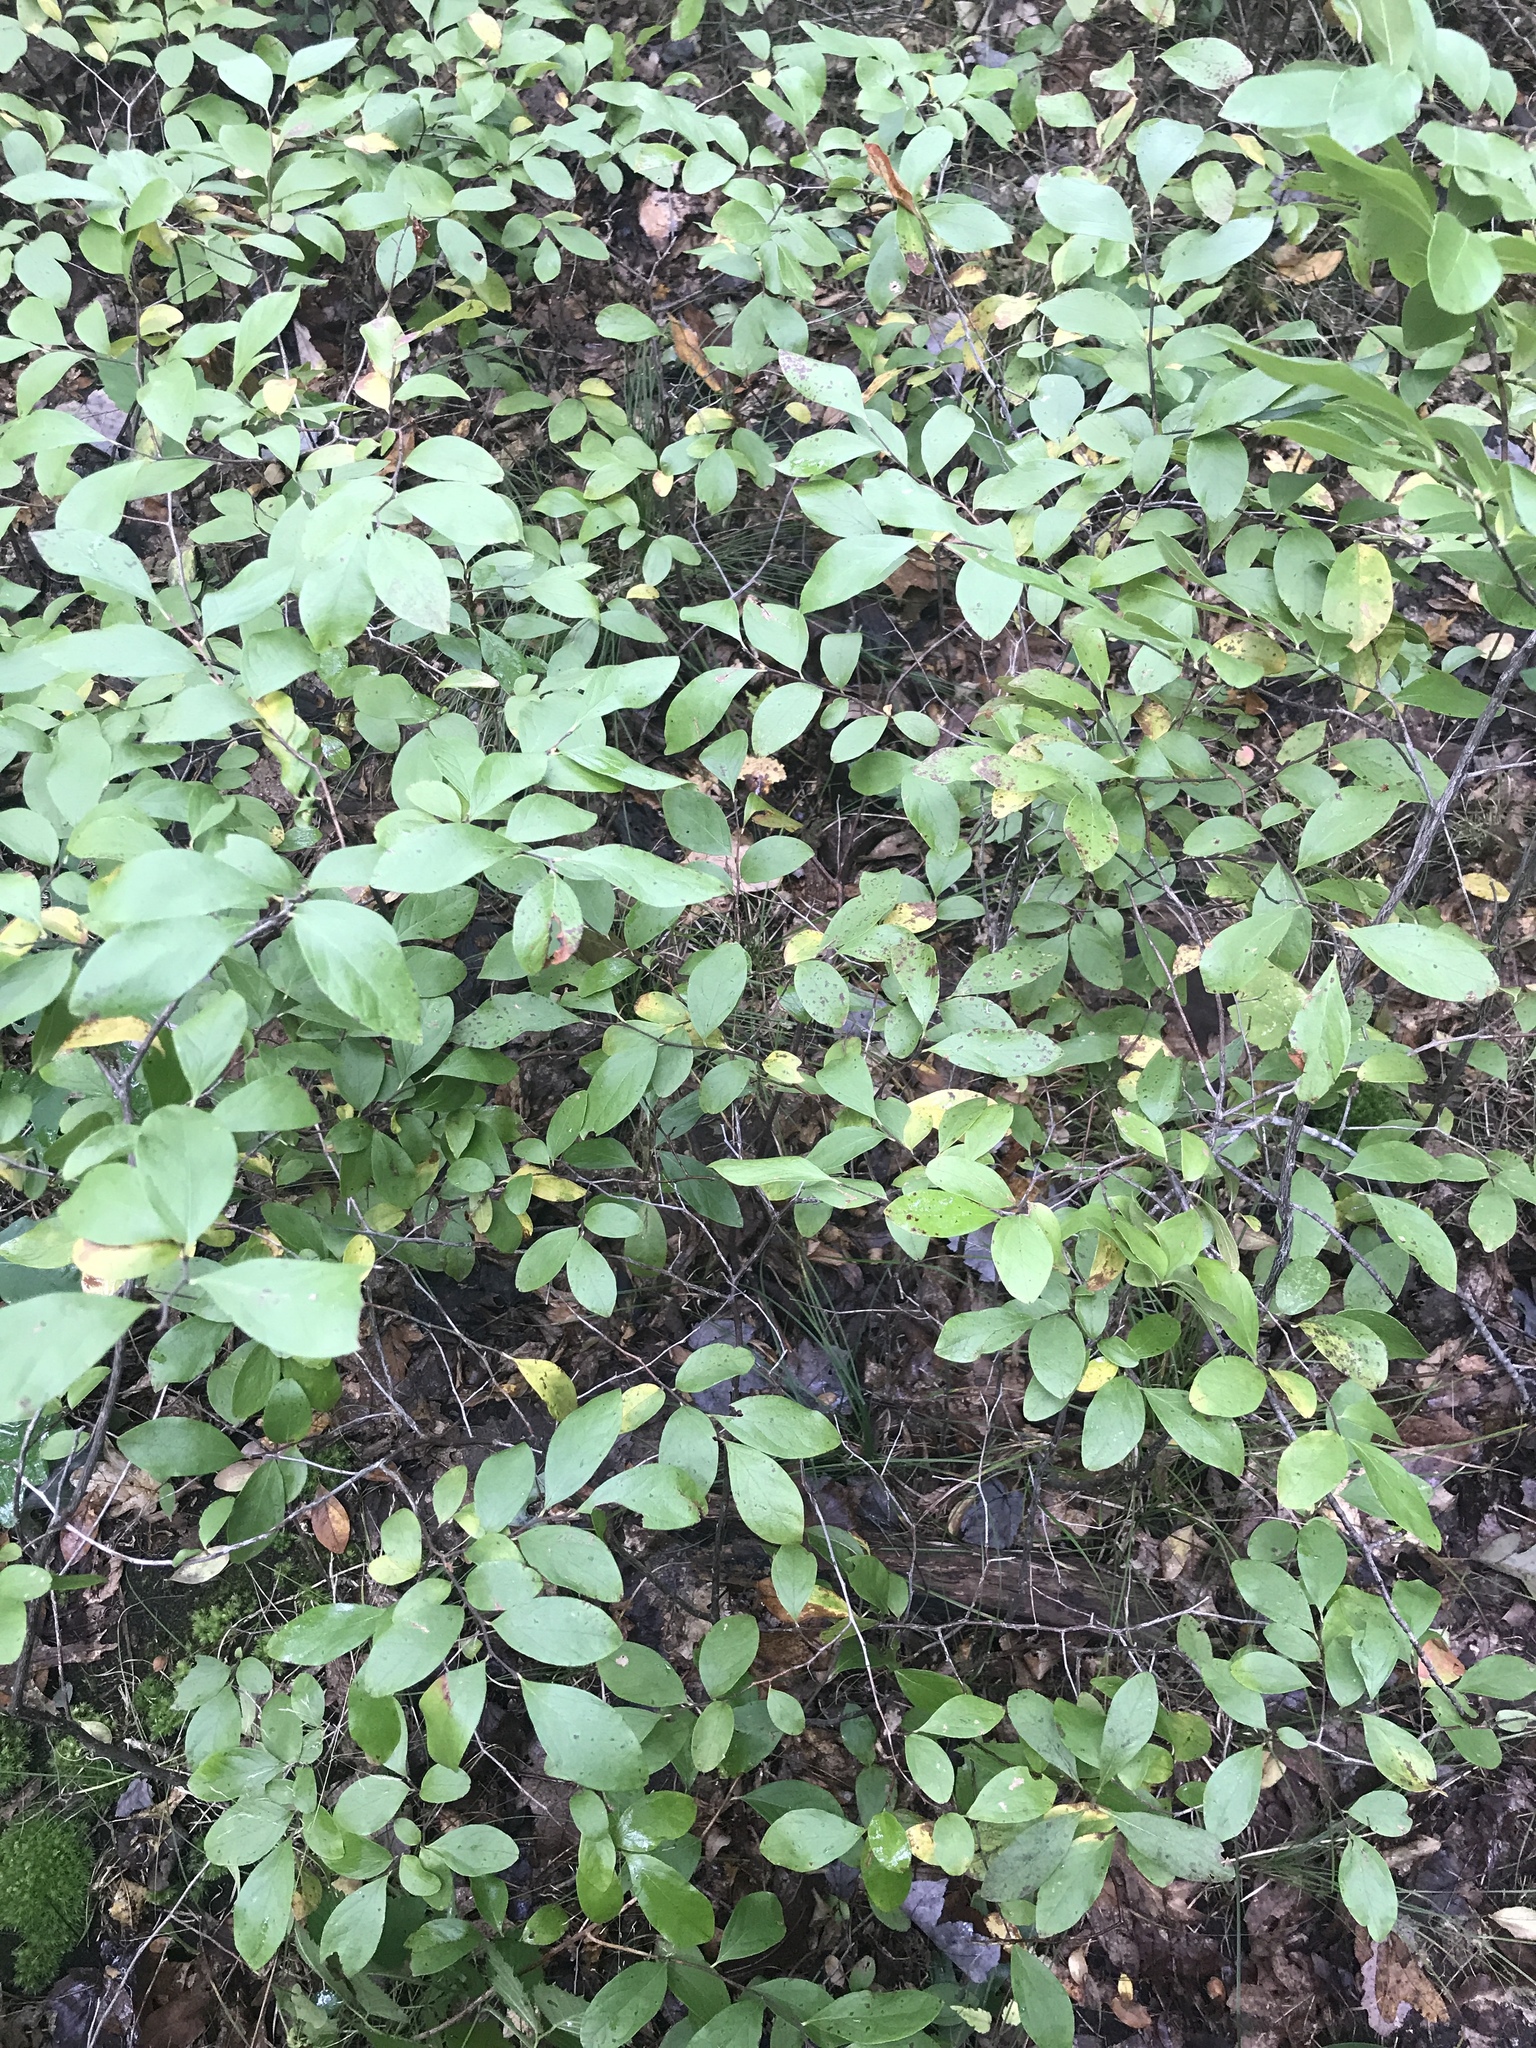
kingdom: Plantae
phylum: Tracheophyta
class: Magnoliopsida
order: Ericales
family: Ericaceae
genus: Gaylussacia
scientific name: Gaylussacia baccata
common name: Black huckleberry
